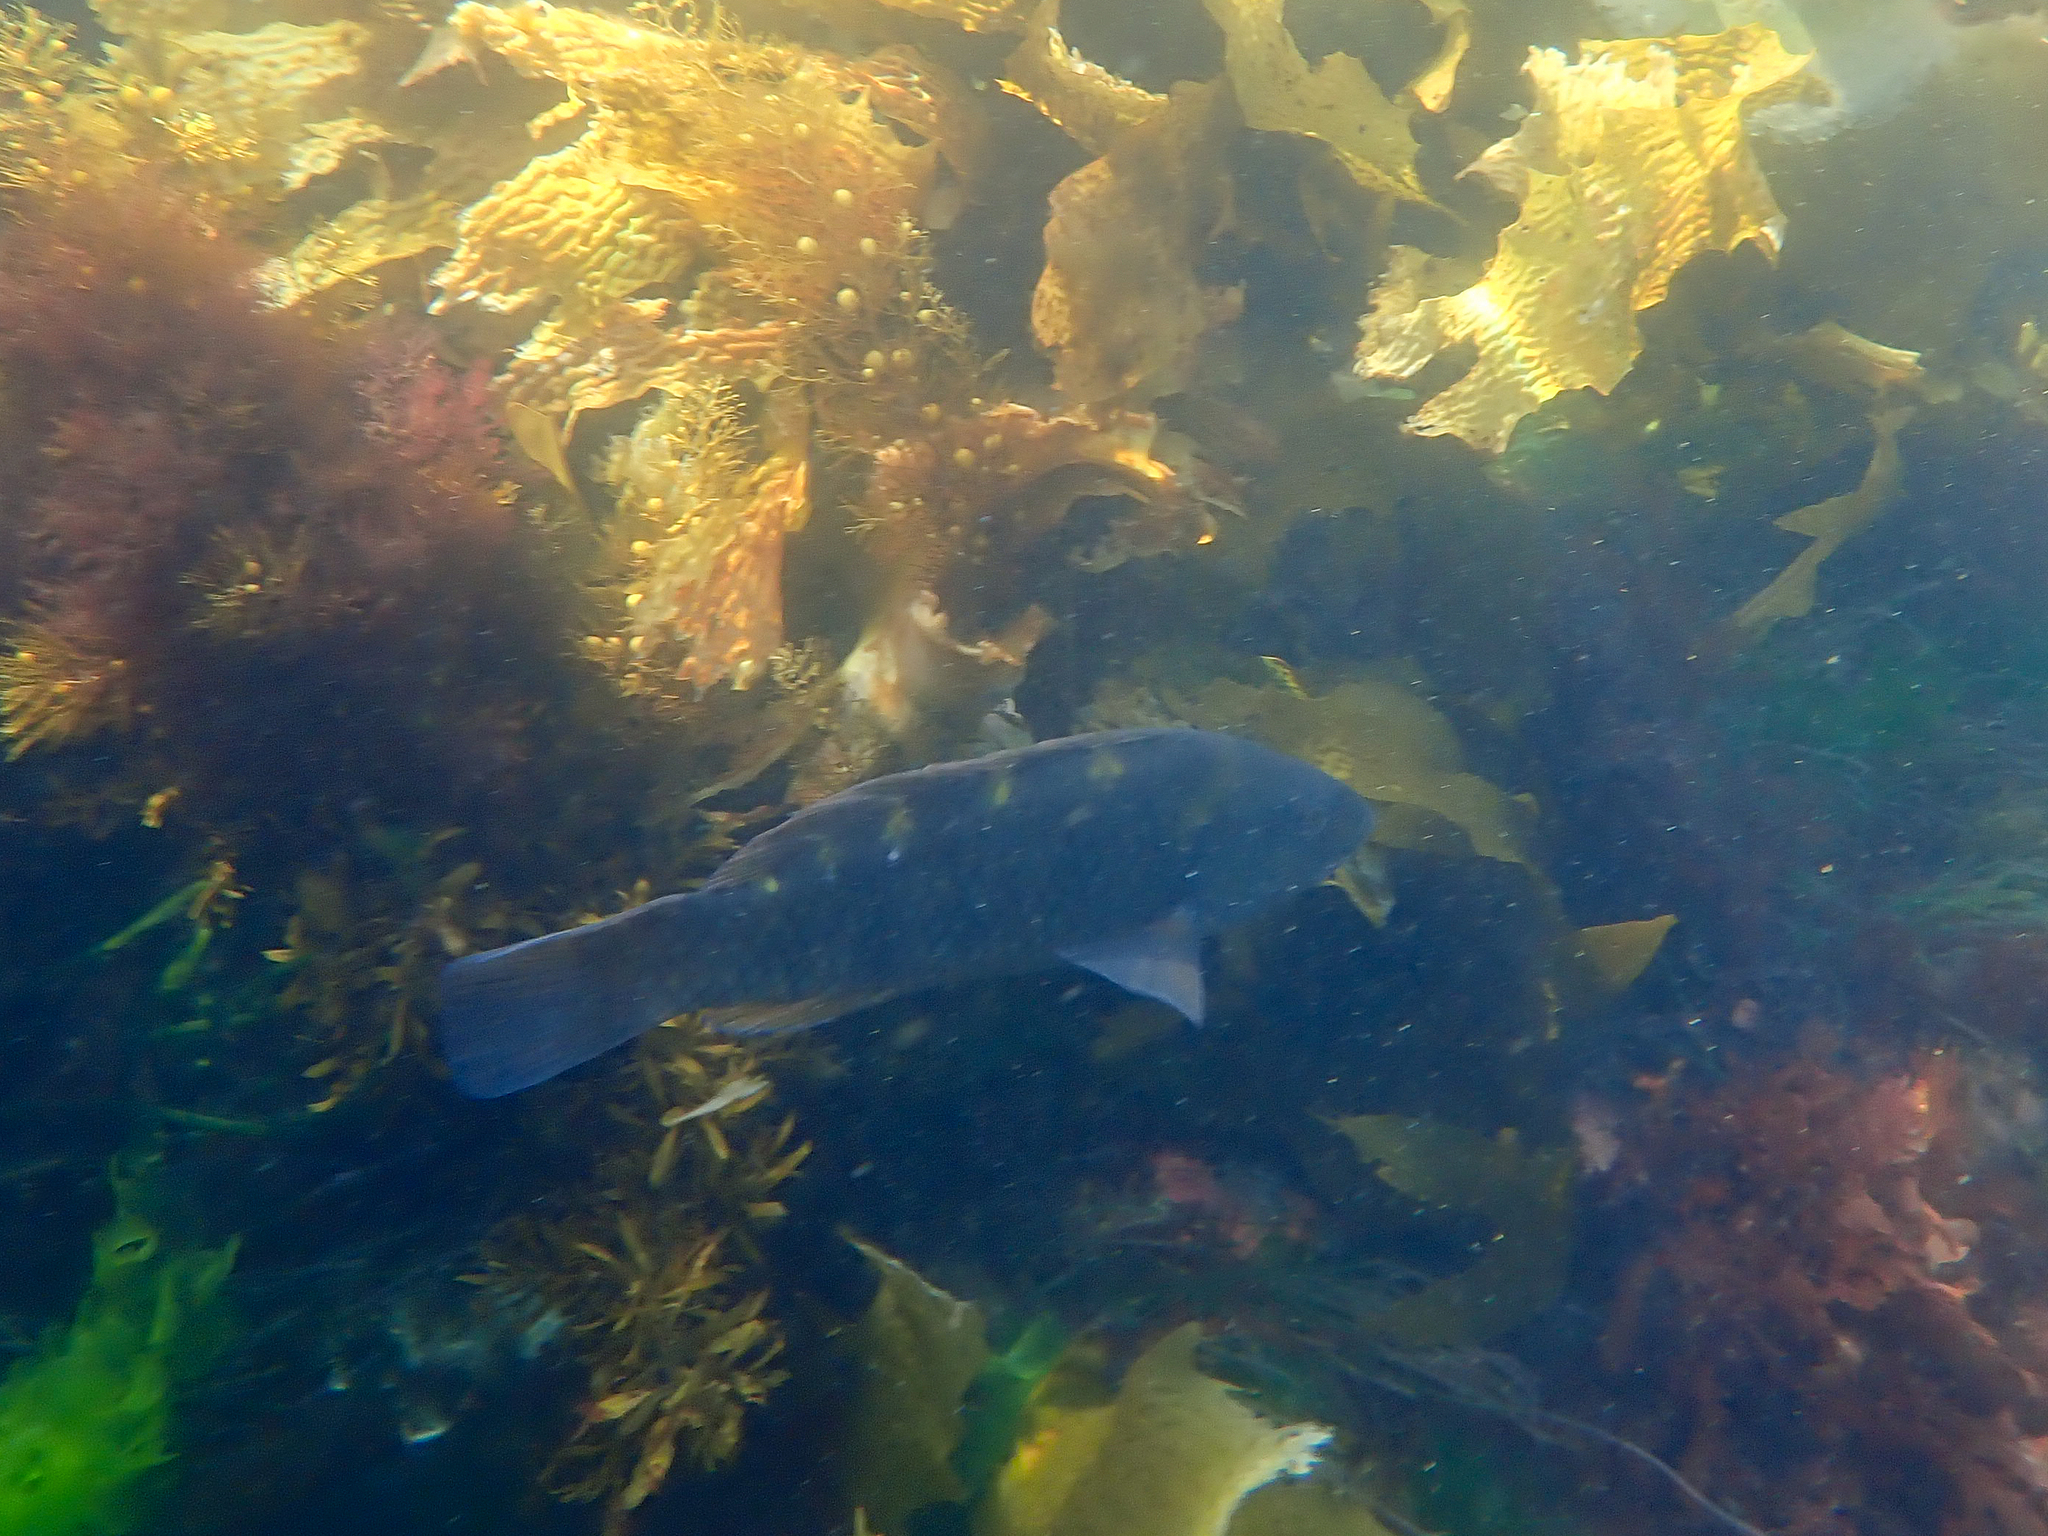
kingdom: Animalia
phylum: Chordata
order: Perciformes
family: Labridae
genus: Notolabrus
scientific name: Notolabrus fucicola
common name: Banded parrotfish
